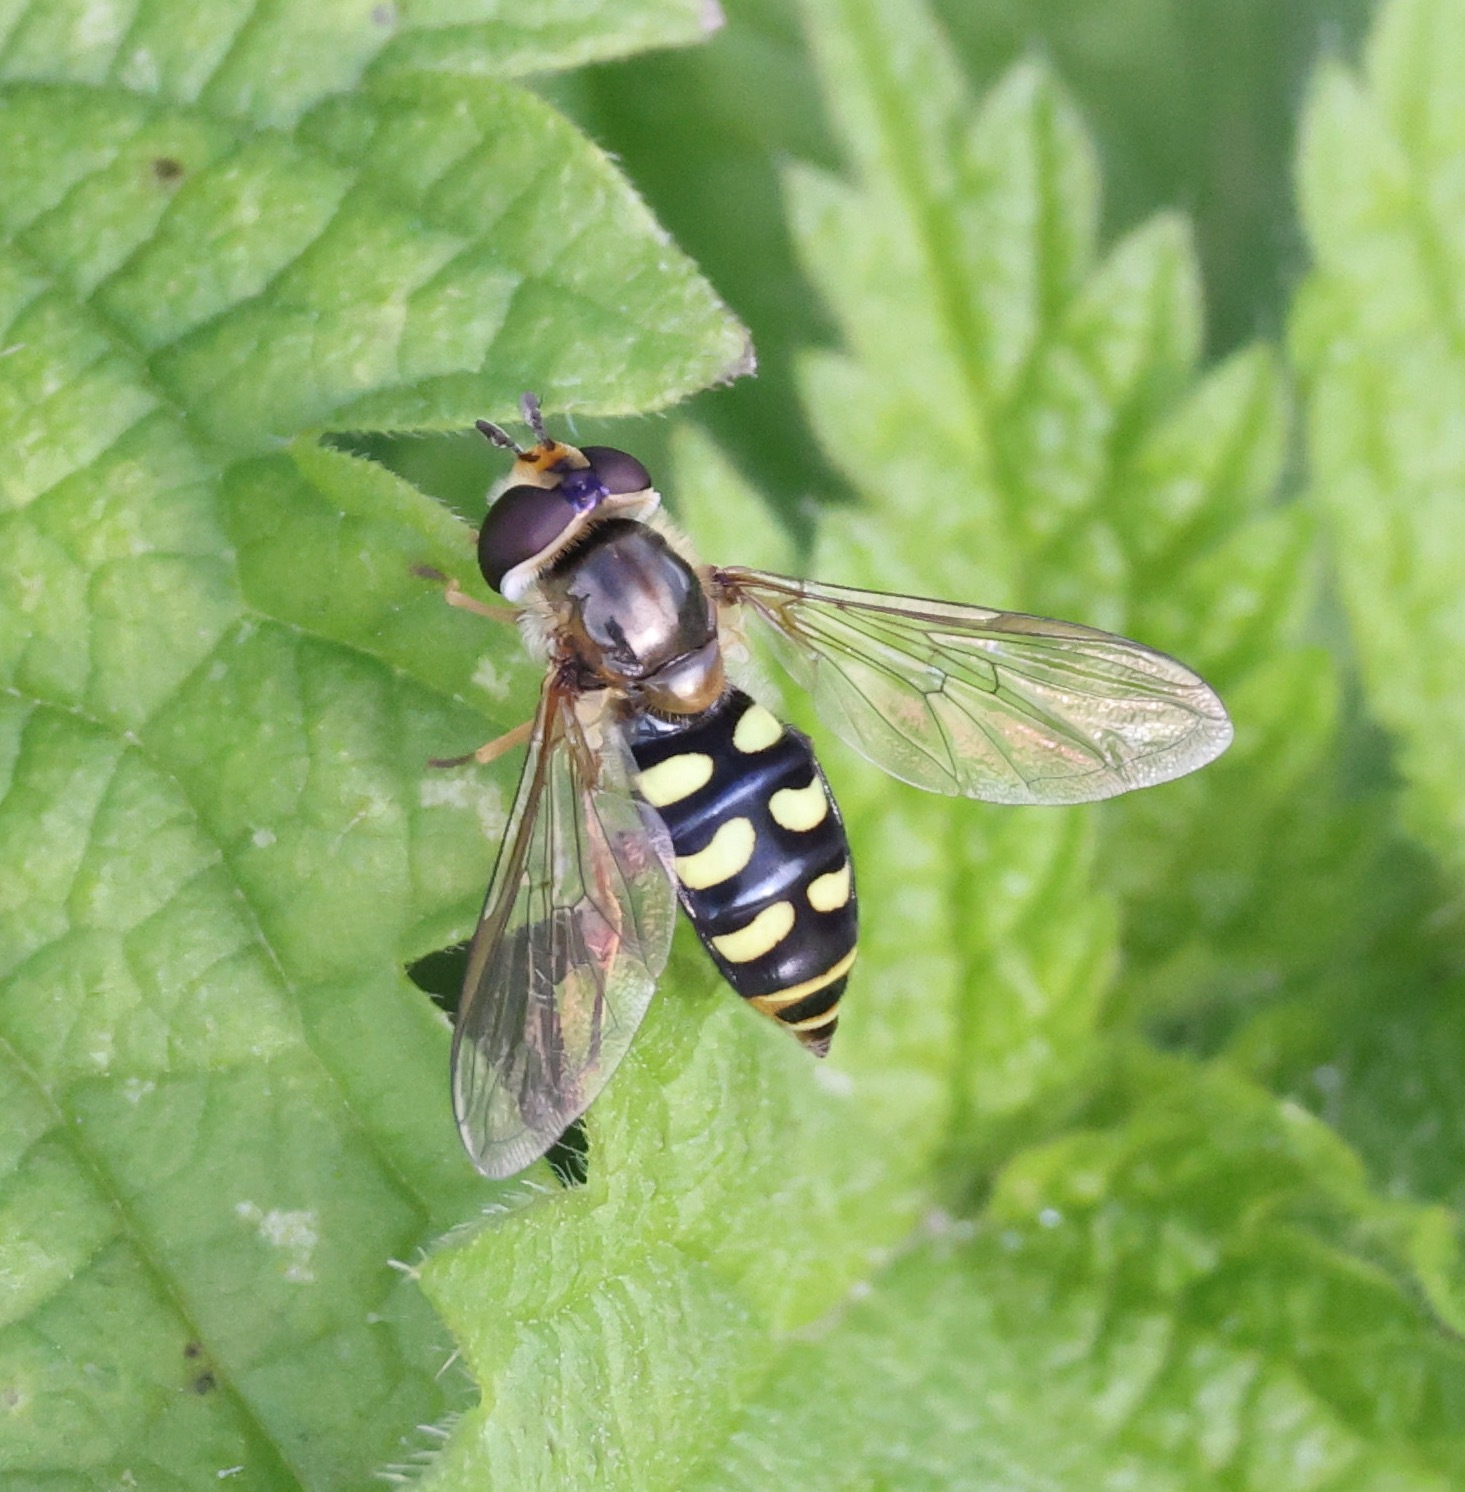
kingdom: Animalia
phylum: Arthropoda
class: Insecta
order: Diptera
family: Syrphidae
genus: Eupeodes
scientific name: Eupeodes luniger
